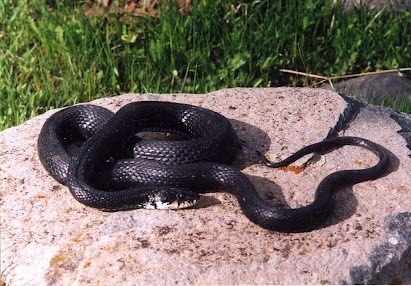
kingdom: Animalia
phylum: Chordata
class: Squamata
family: Colubridae
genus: Natrix
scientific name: Natrix natrix
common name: Grass snake
